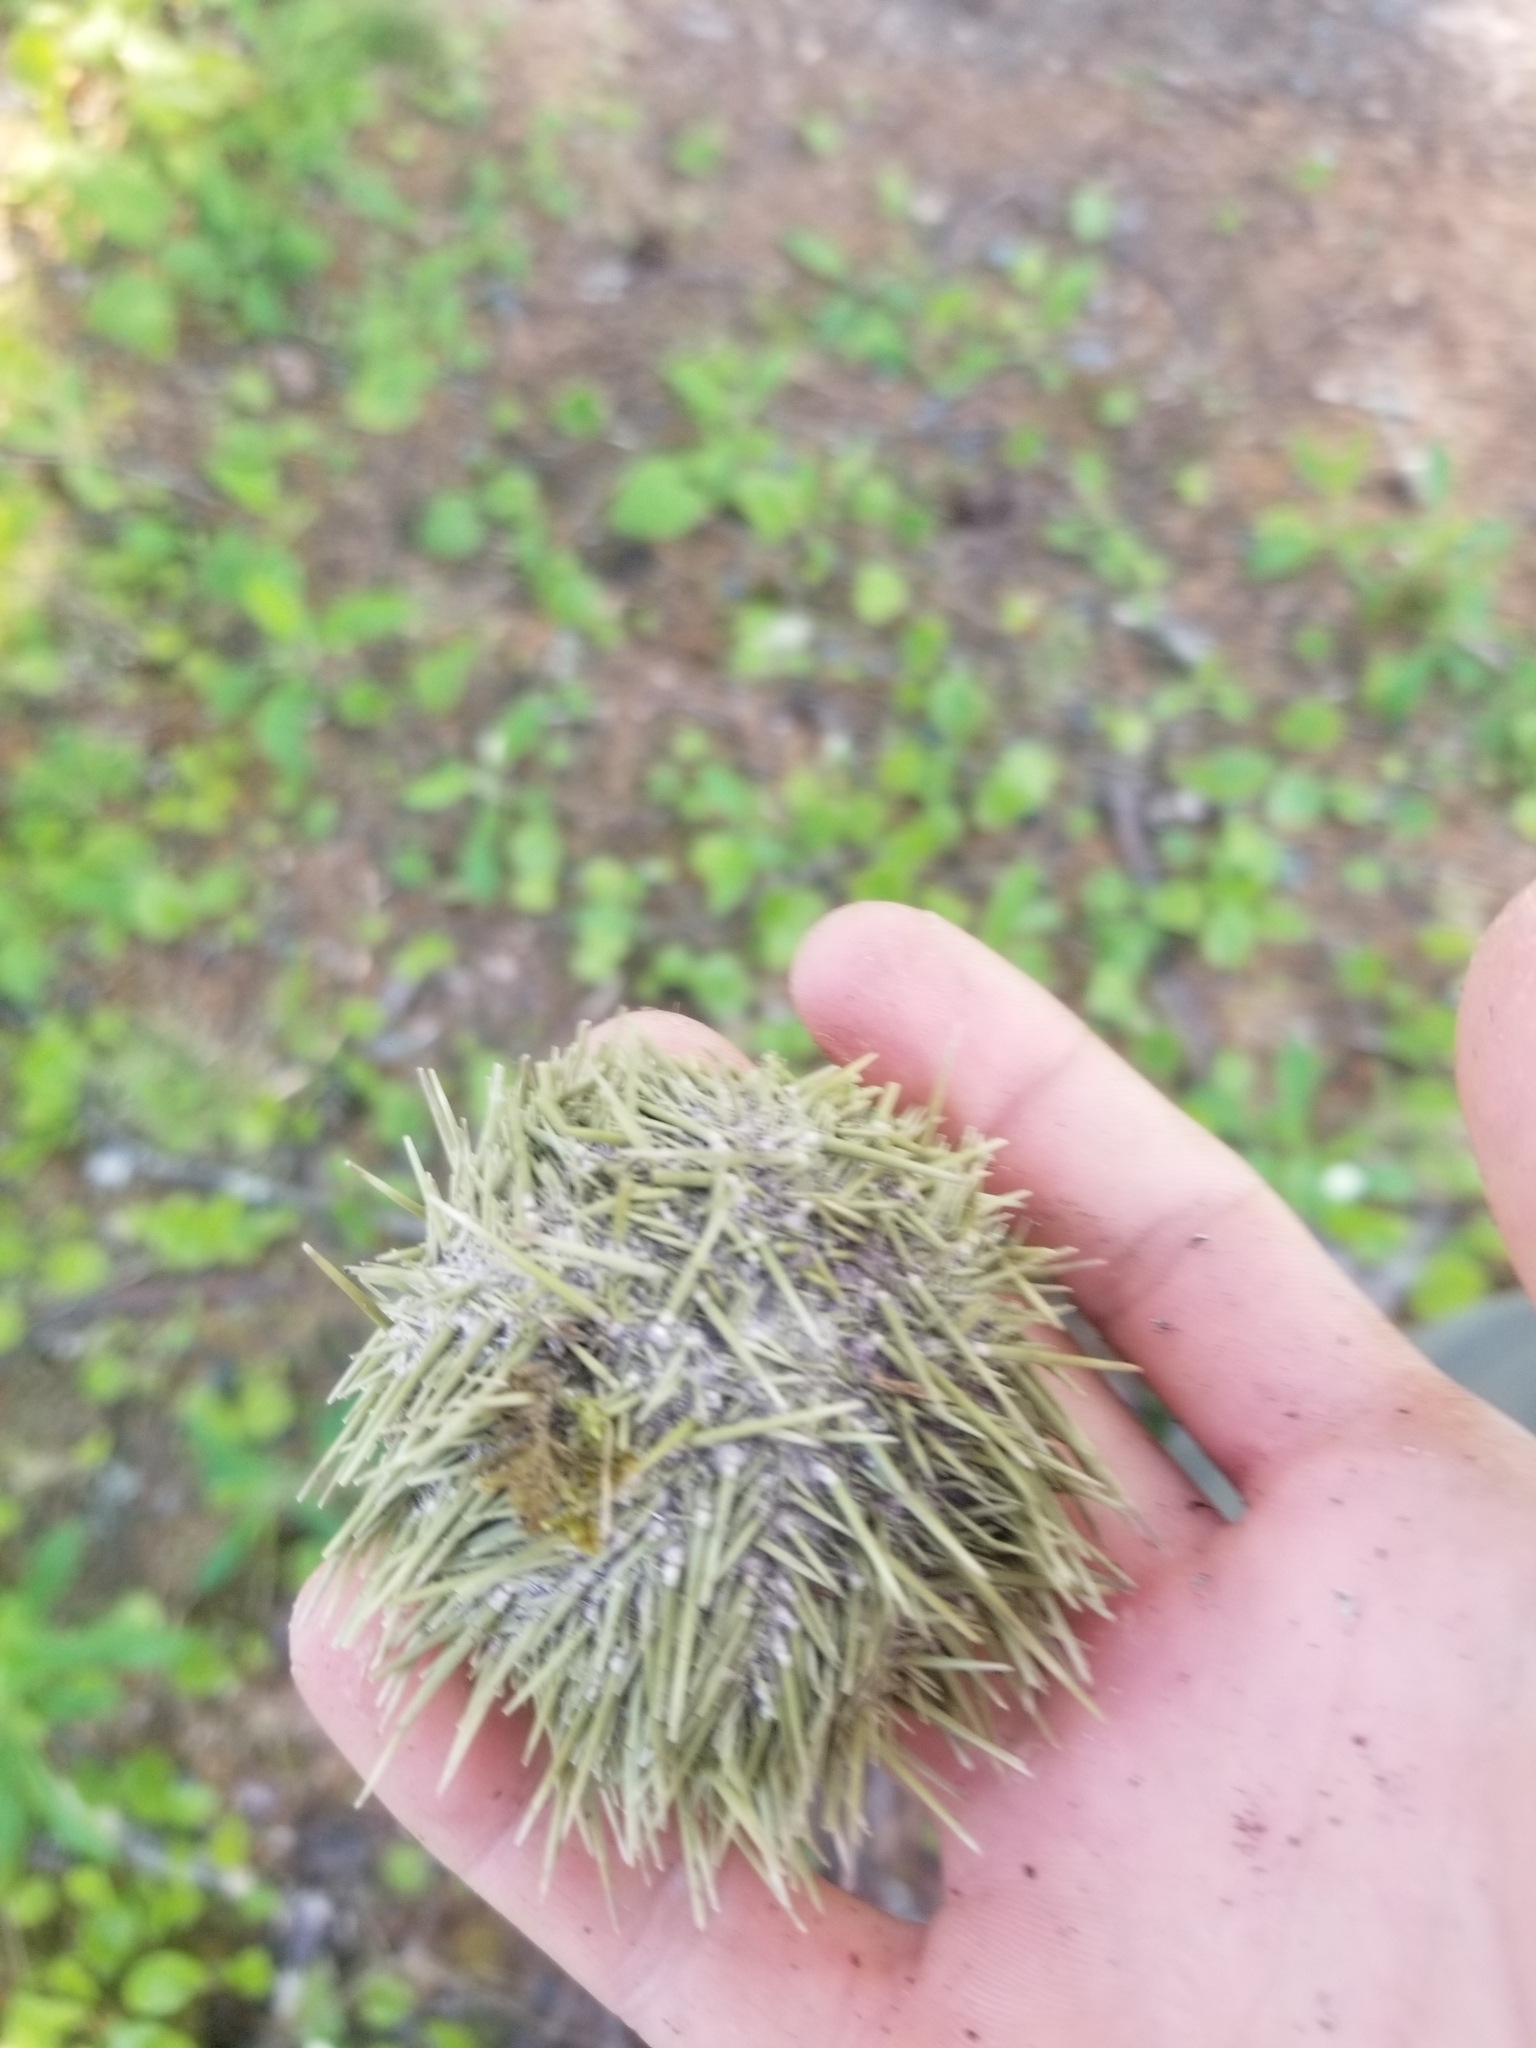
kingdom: Animalia
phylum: Echinodermata
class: Echinoidea
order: Camarodonta
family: Strongylocentrotidae
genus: Strongylocentrotus
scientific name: Strongylocentrotus droebachiensis
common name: Northern sea urchin
